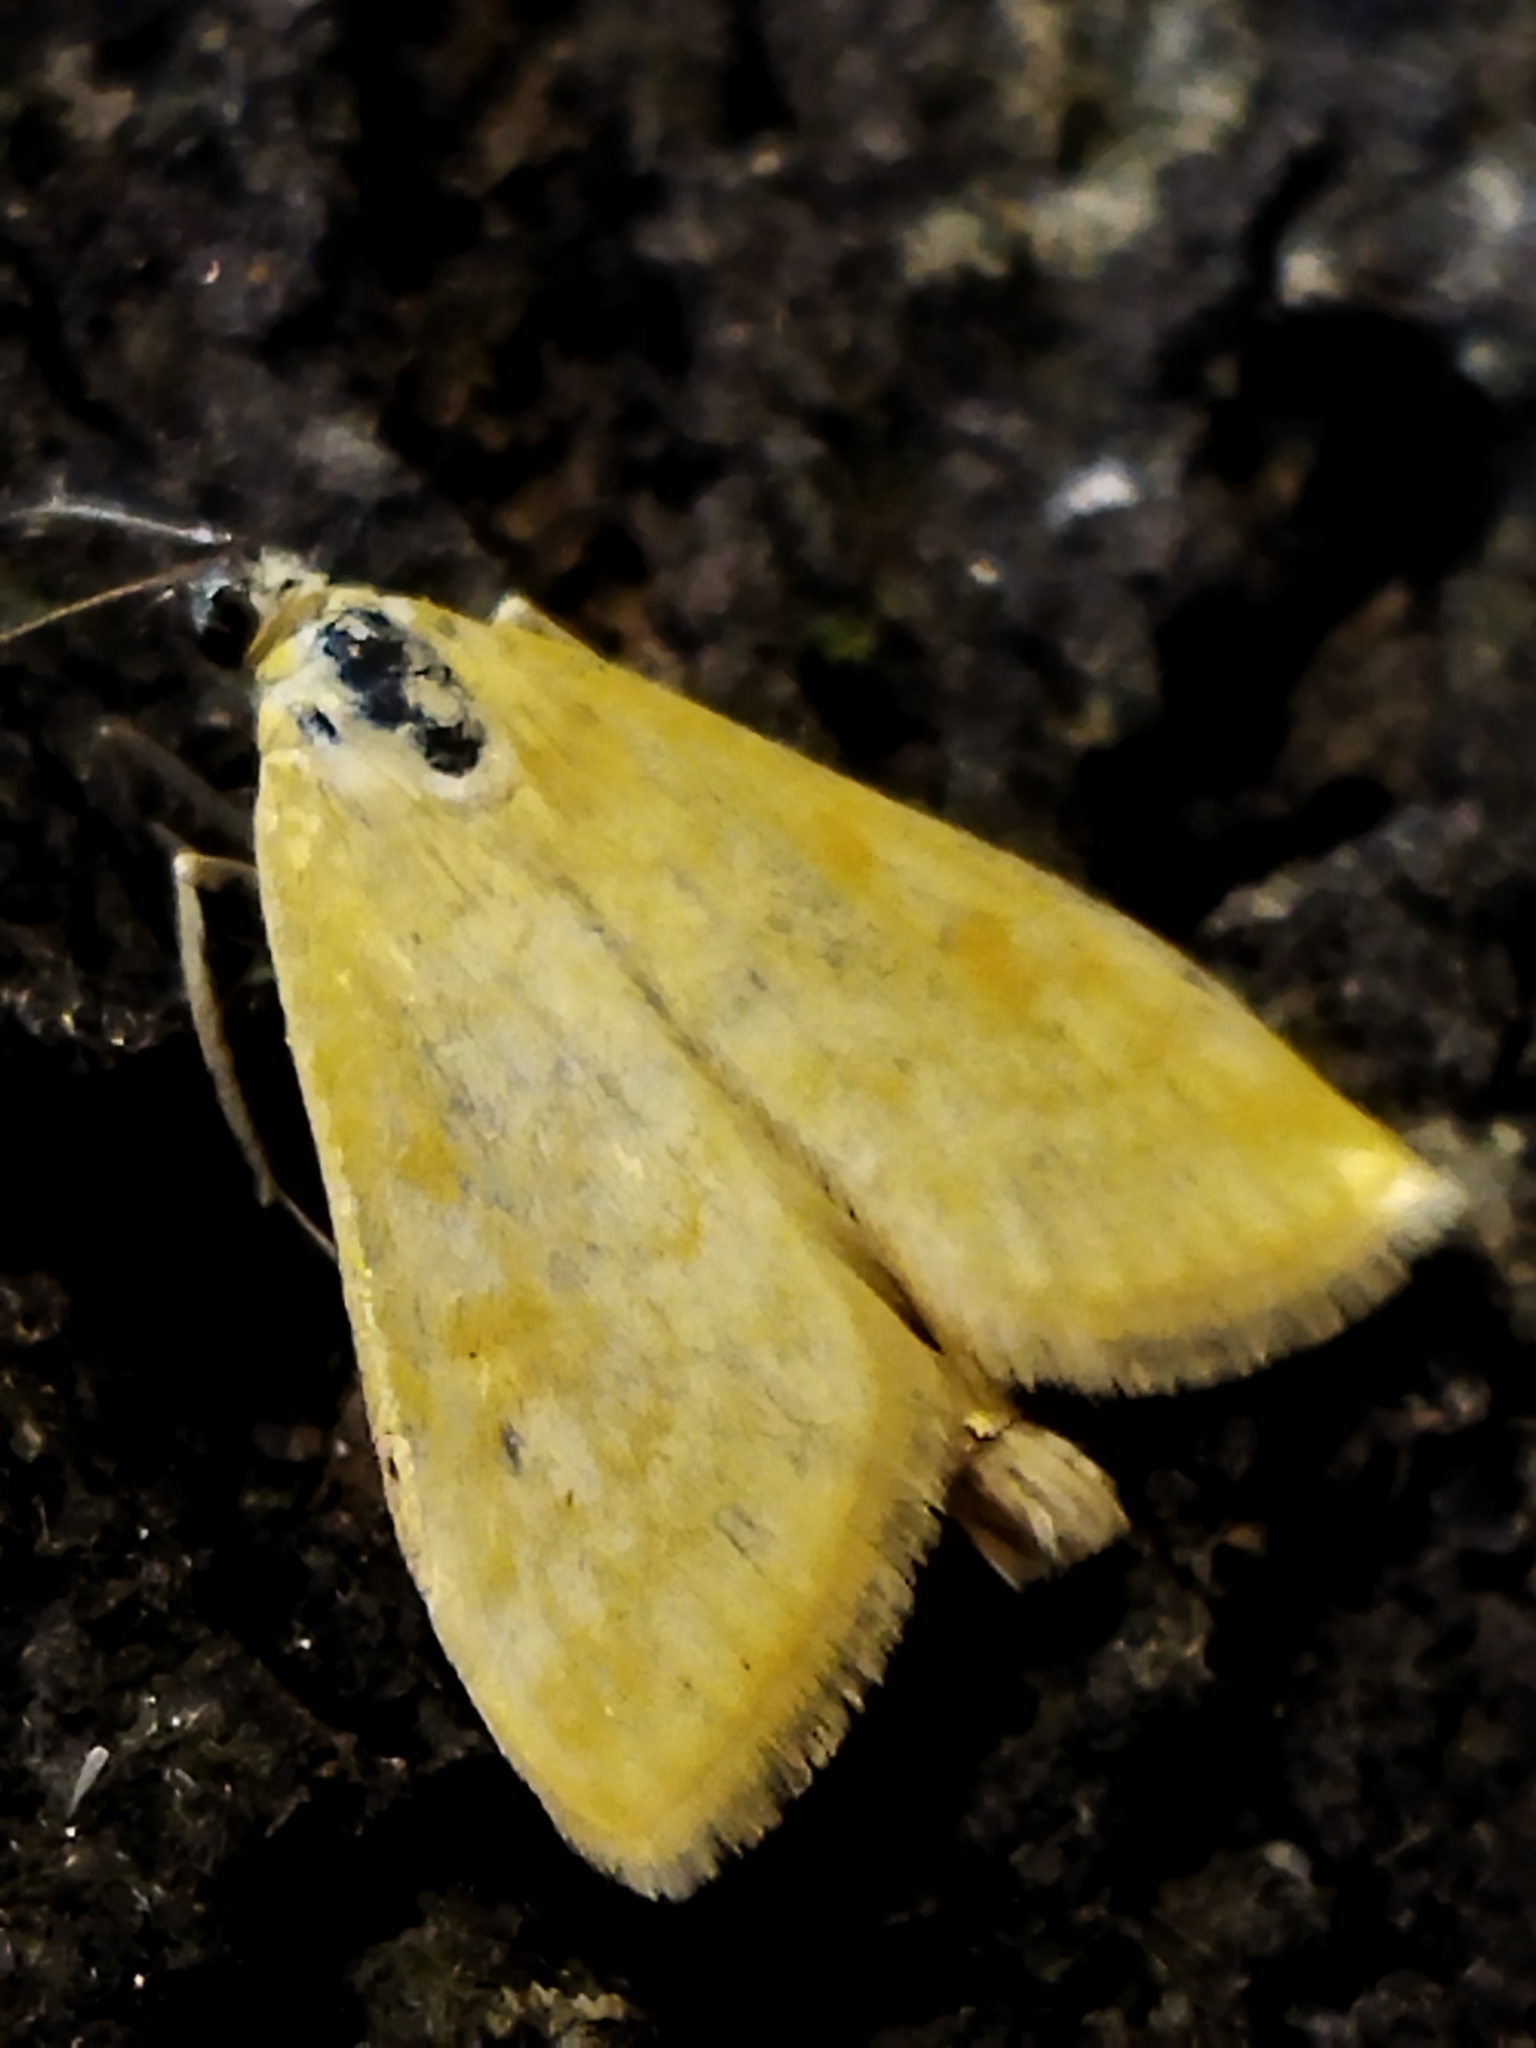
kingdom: Animalia
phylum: Arthropoda
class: Insecta
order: Lepidoptera
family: Crambidae
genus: Sitochroa
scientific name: Sitochroa verticalis
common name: Lesser pearl
